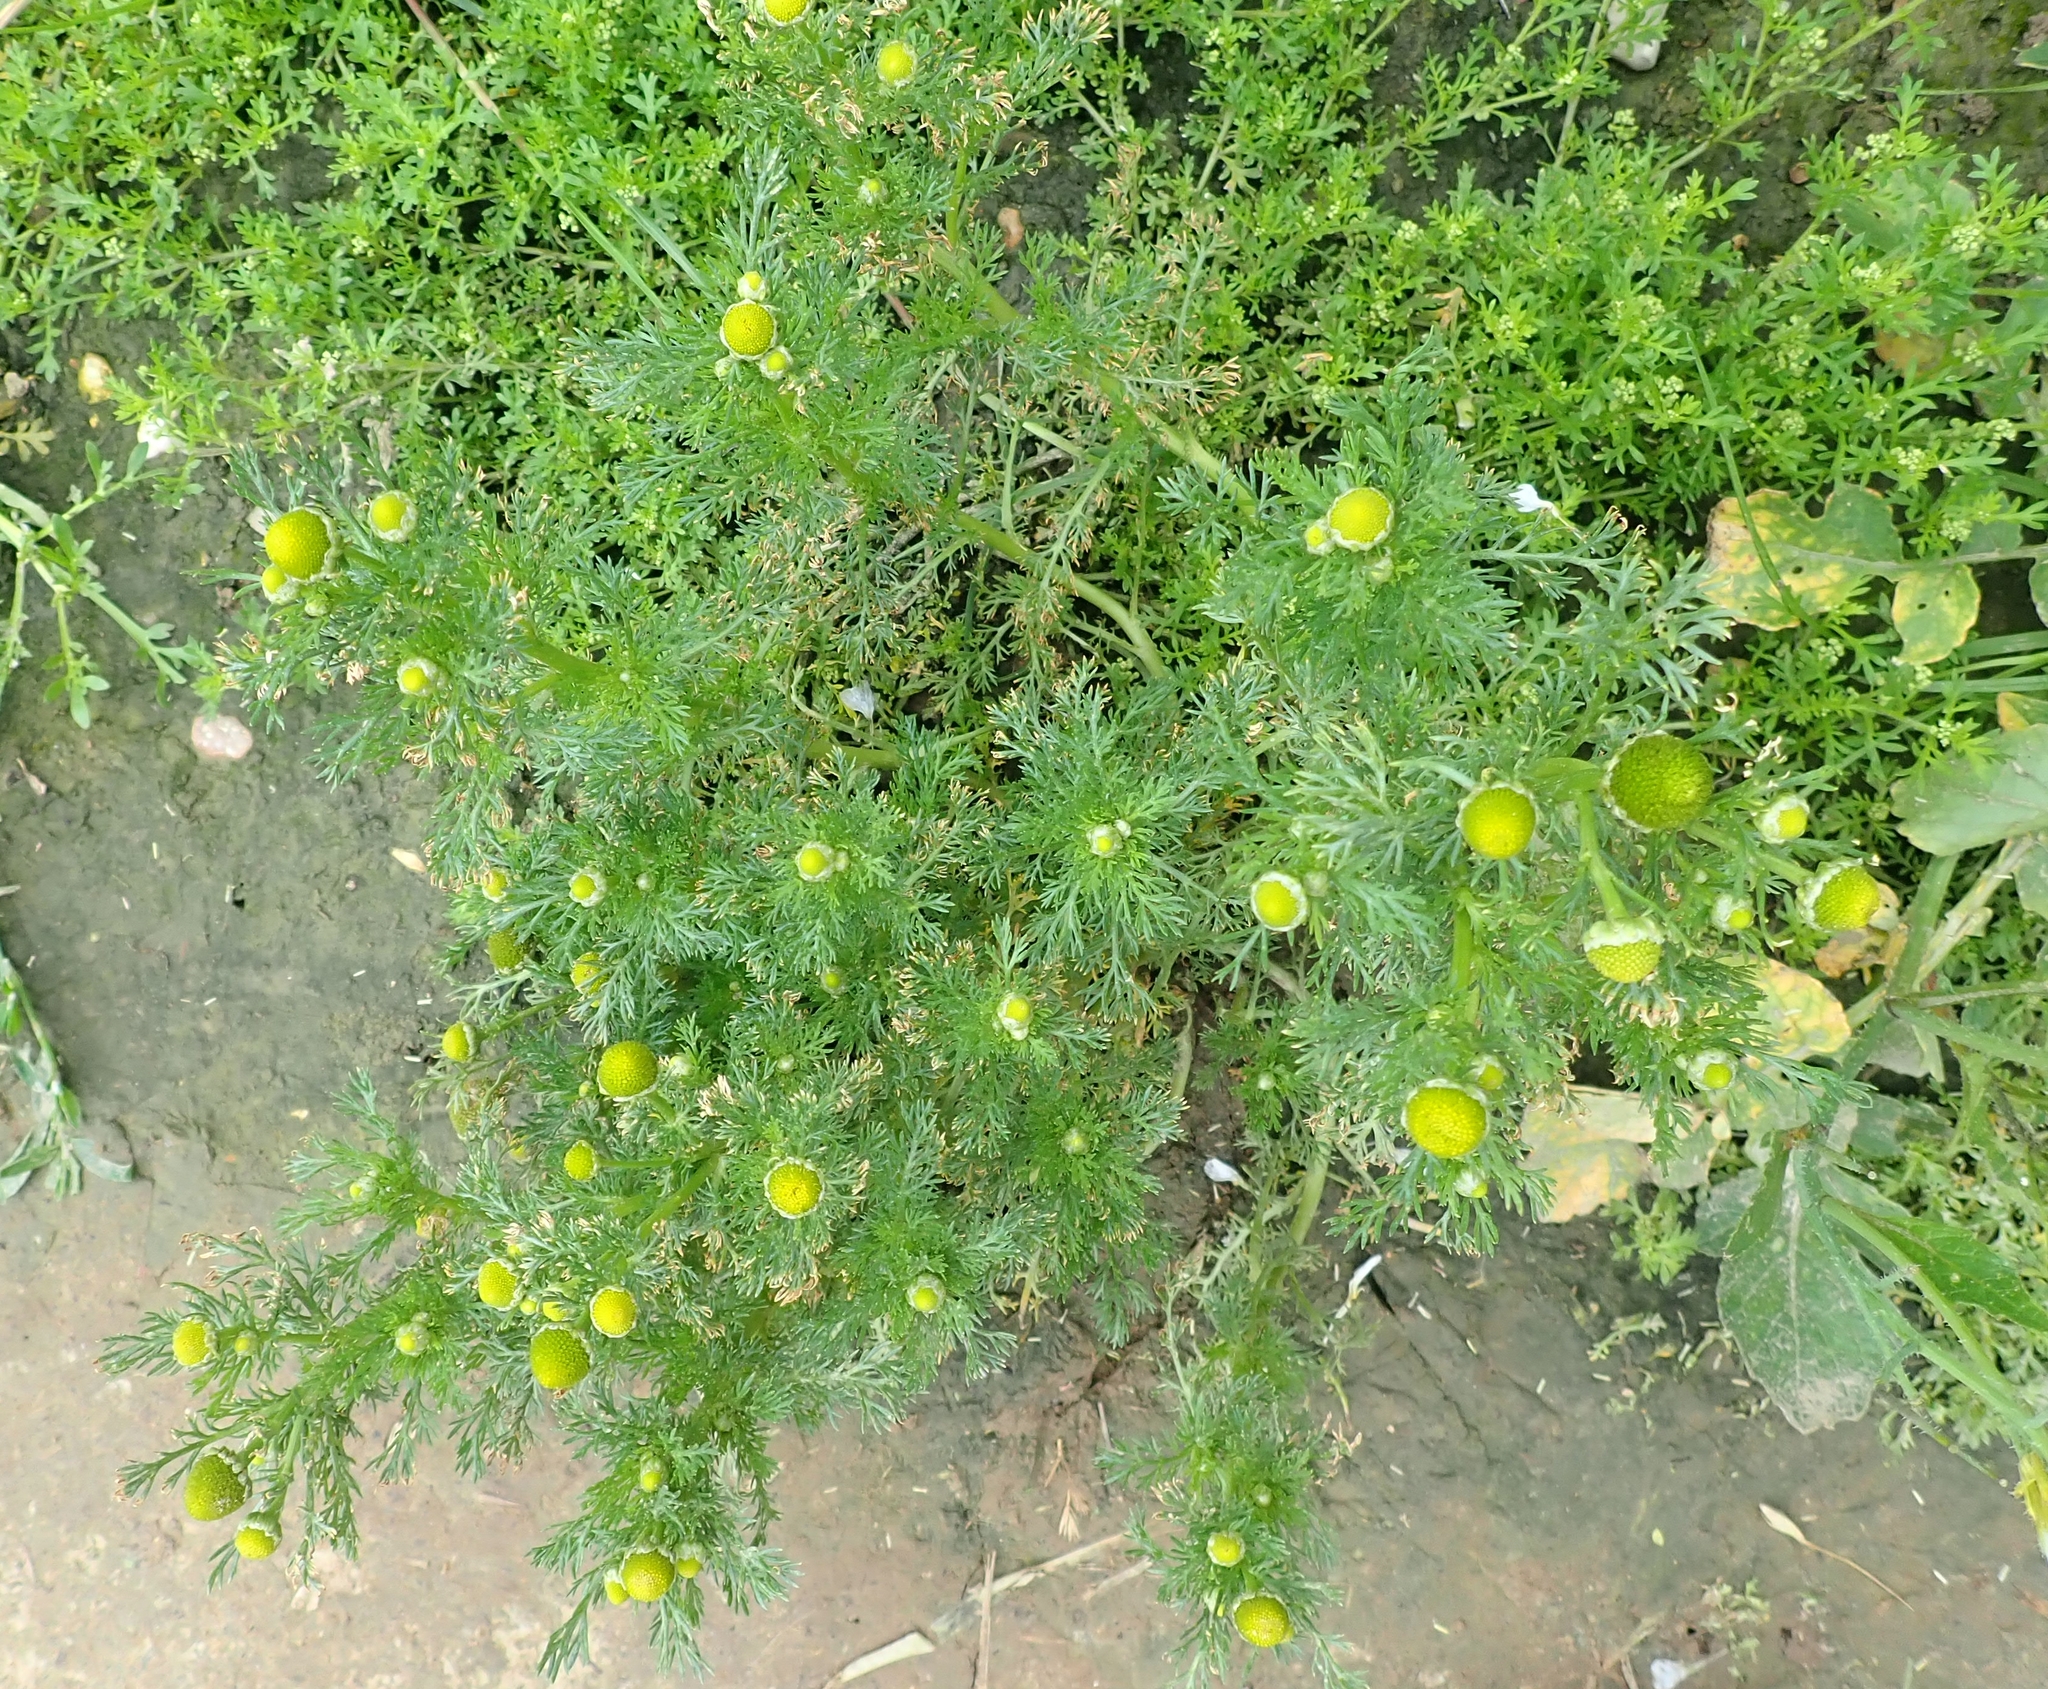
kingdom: Plantae
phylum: Tracheophyta
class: Magnoliopsida
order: Asterales
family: Asteraceae
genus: Matricaria
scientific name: Matricaria discoidea
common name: Disc mayweed
